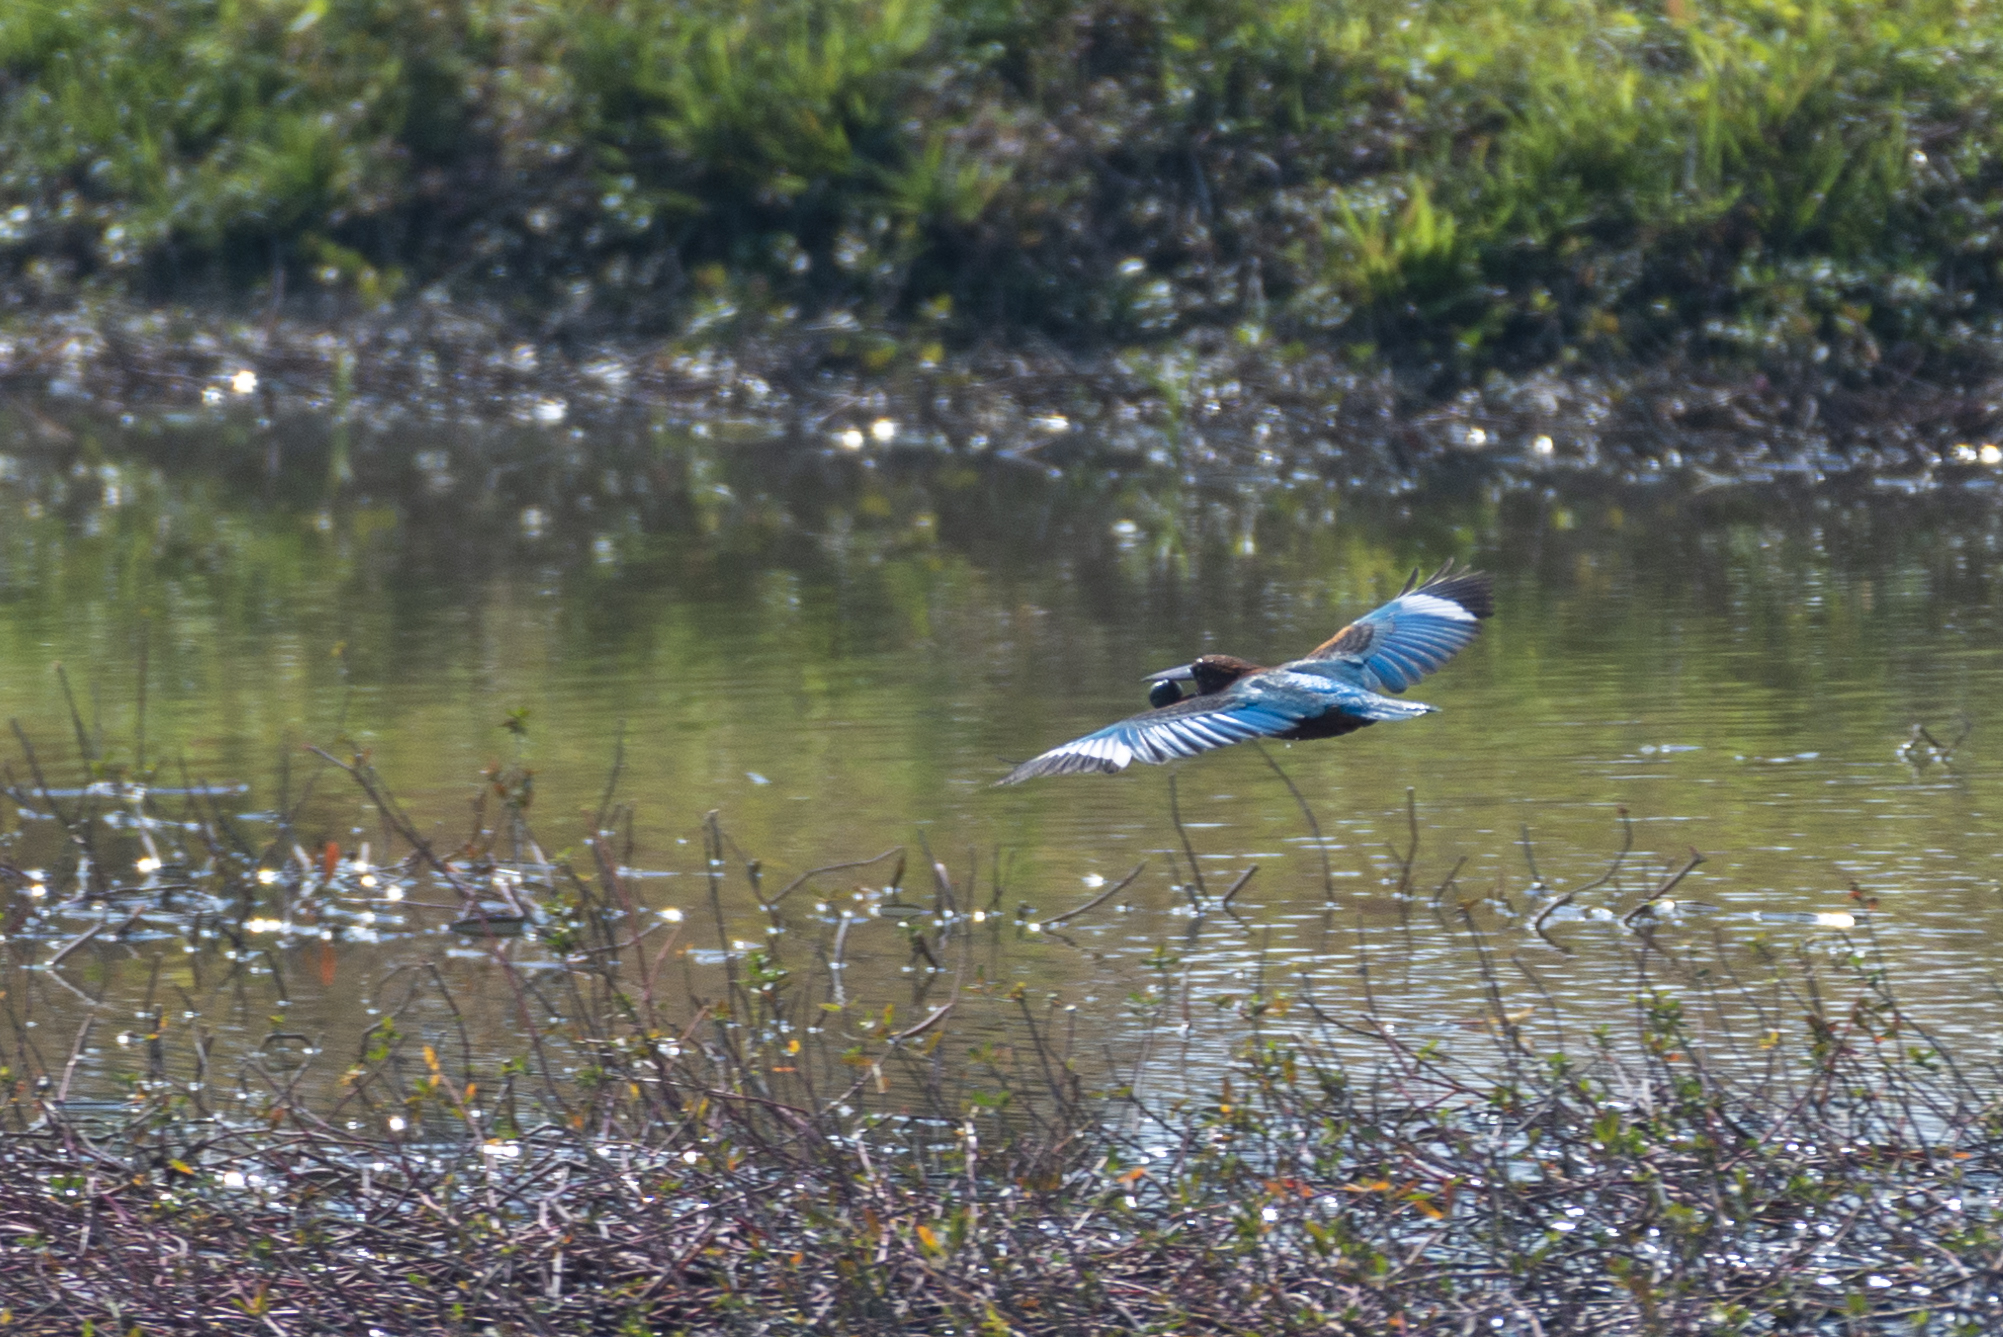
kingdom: Animalia
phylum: Chordata
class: Aves
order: Coraciiformes
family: Alcedinidae
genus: Halcyon
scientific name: Halcyon smyrnensis
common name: White-throated kingfisher
